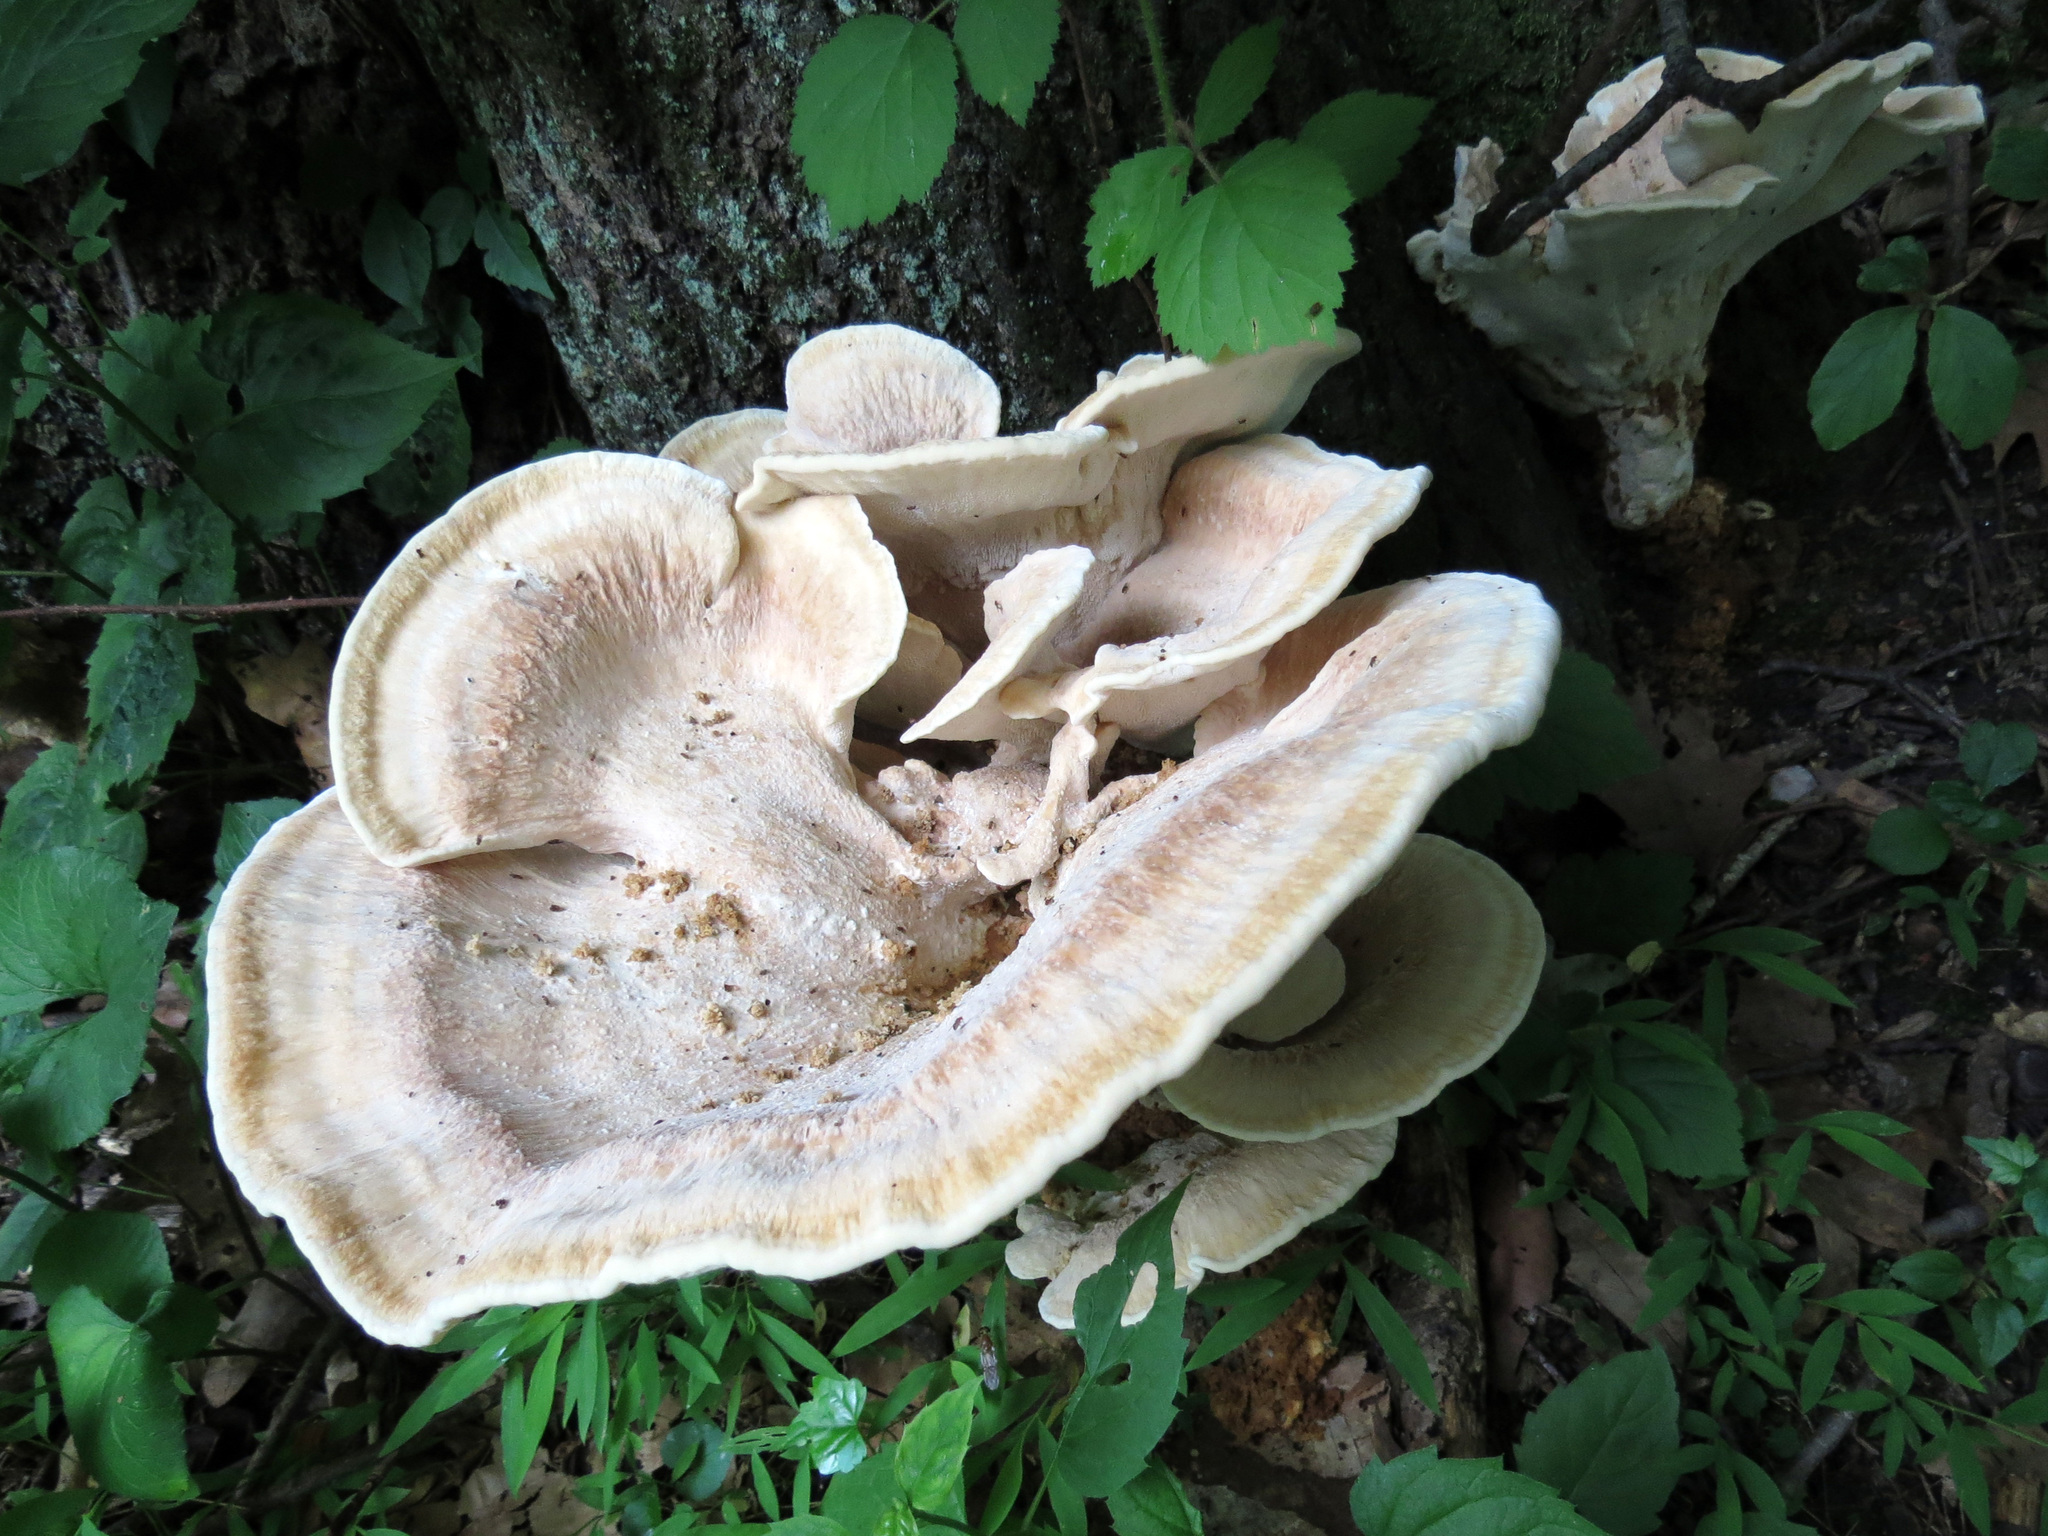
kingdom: Fungi
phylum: Basidiomycota
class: Agaricomycetes
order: Russulales
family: Bondarzewiaceae
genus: Bondarzewia
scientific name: Bondarzewia berkeleyi
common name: Berkeley's polypore
